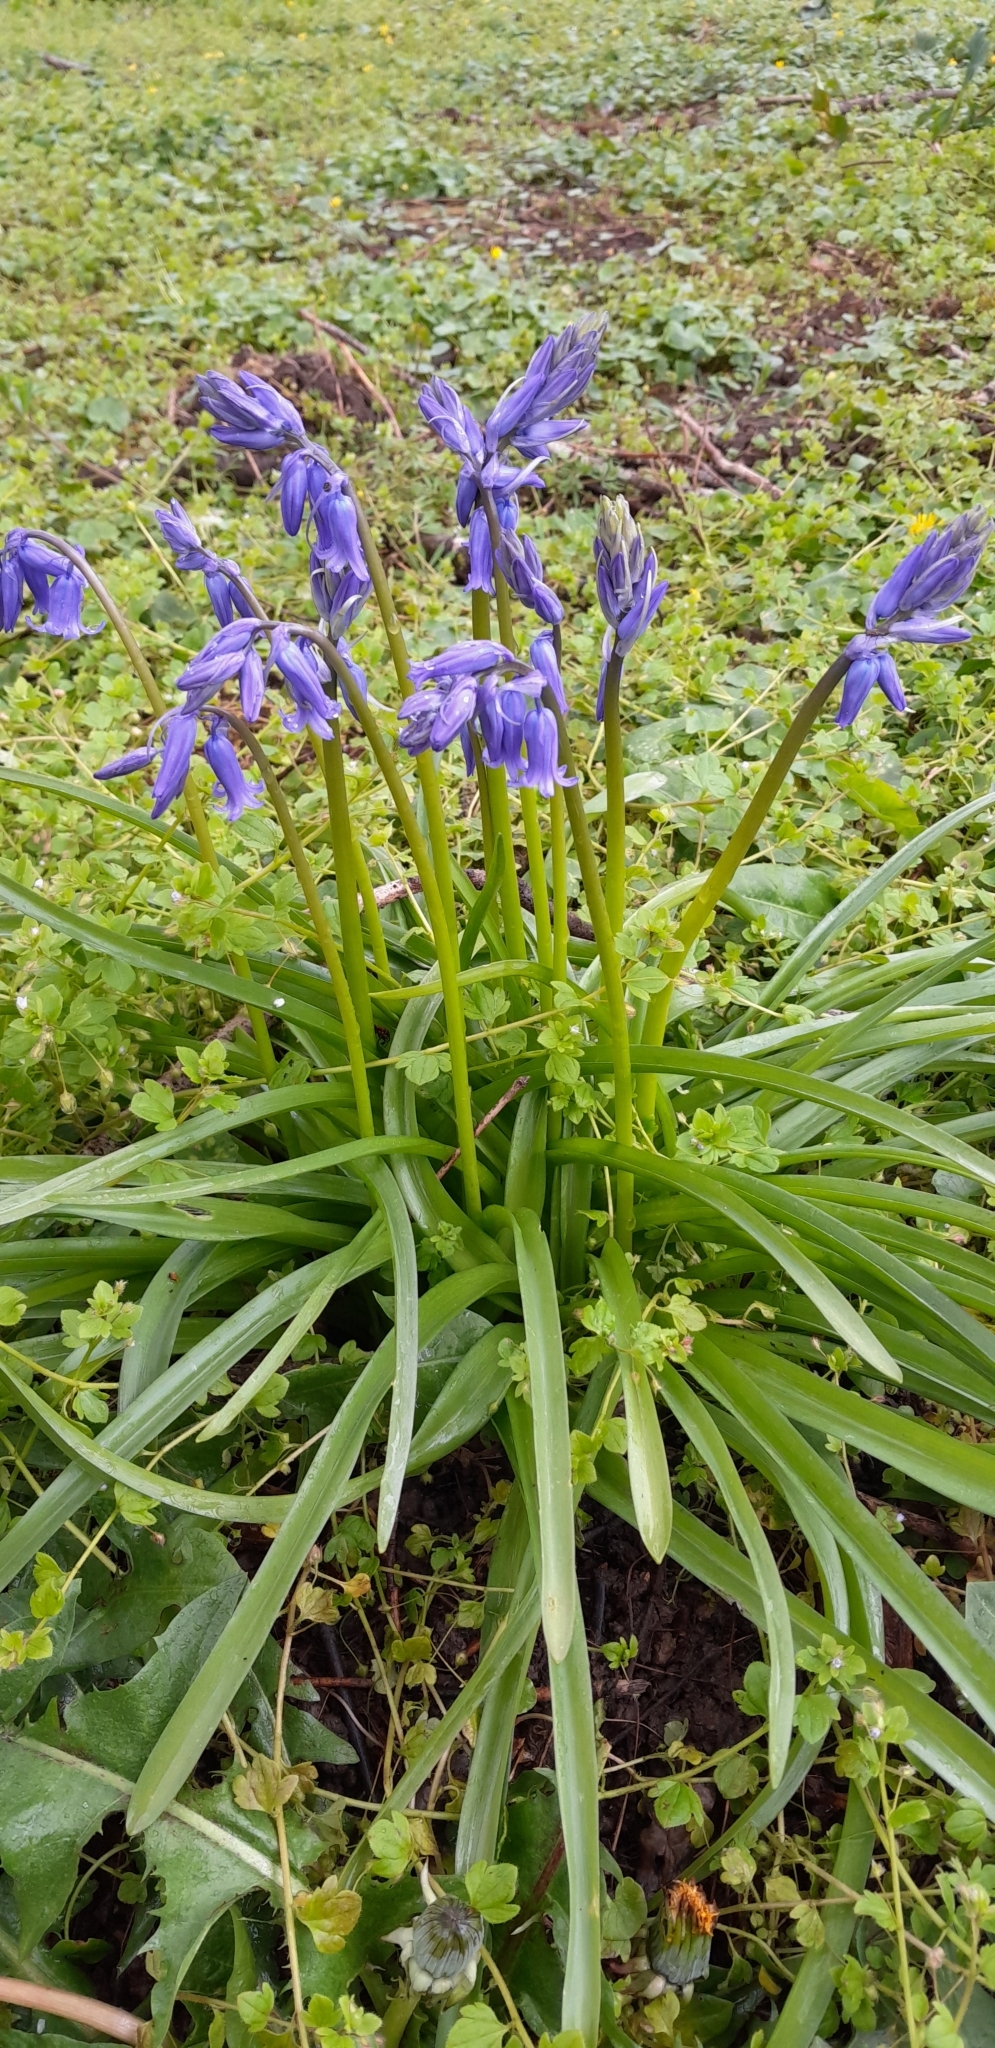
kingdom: Plantae
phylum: Tracheophyta
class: Liliopsida
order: Asparagales
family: Asparagaceae
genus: Hyacinthoides
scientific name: Hyacinthoides non-scripta
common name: Bluebell
